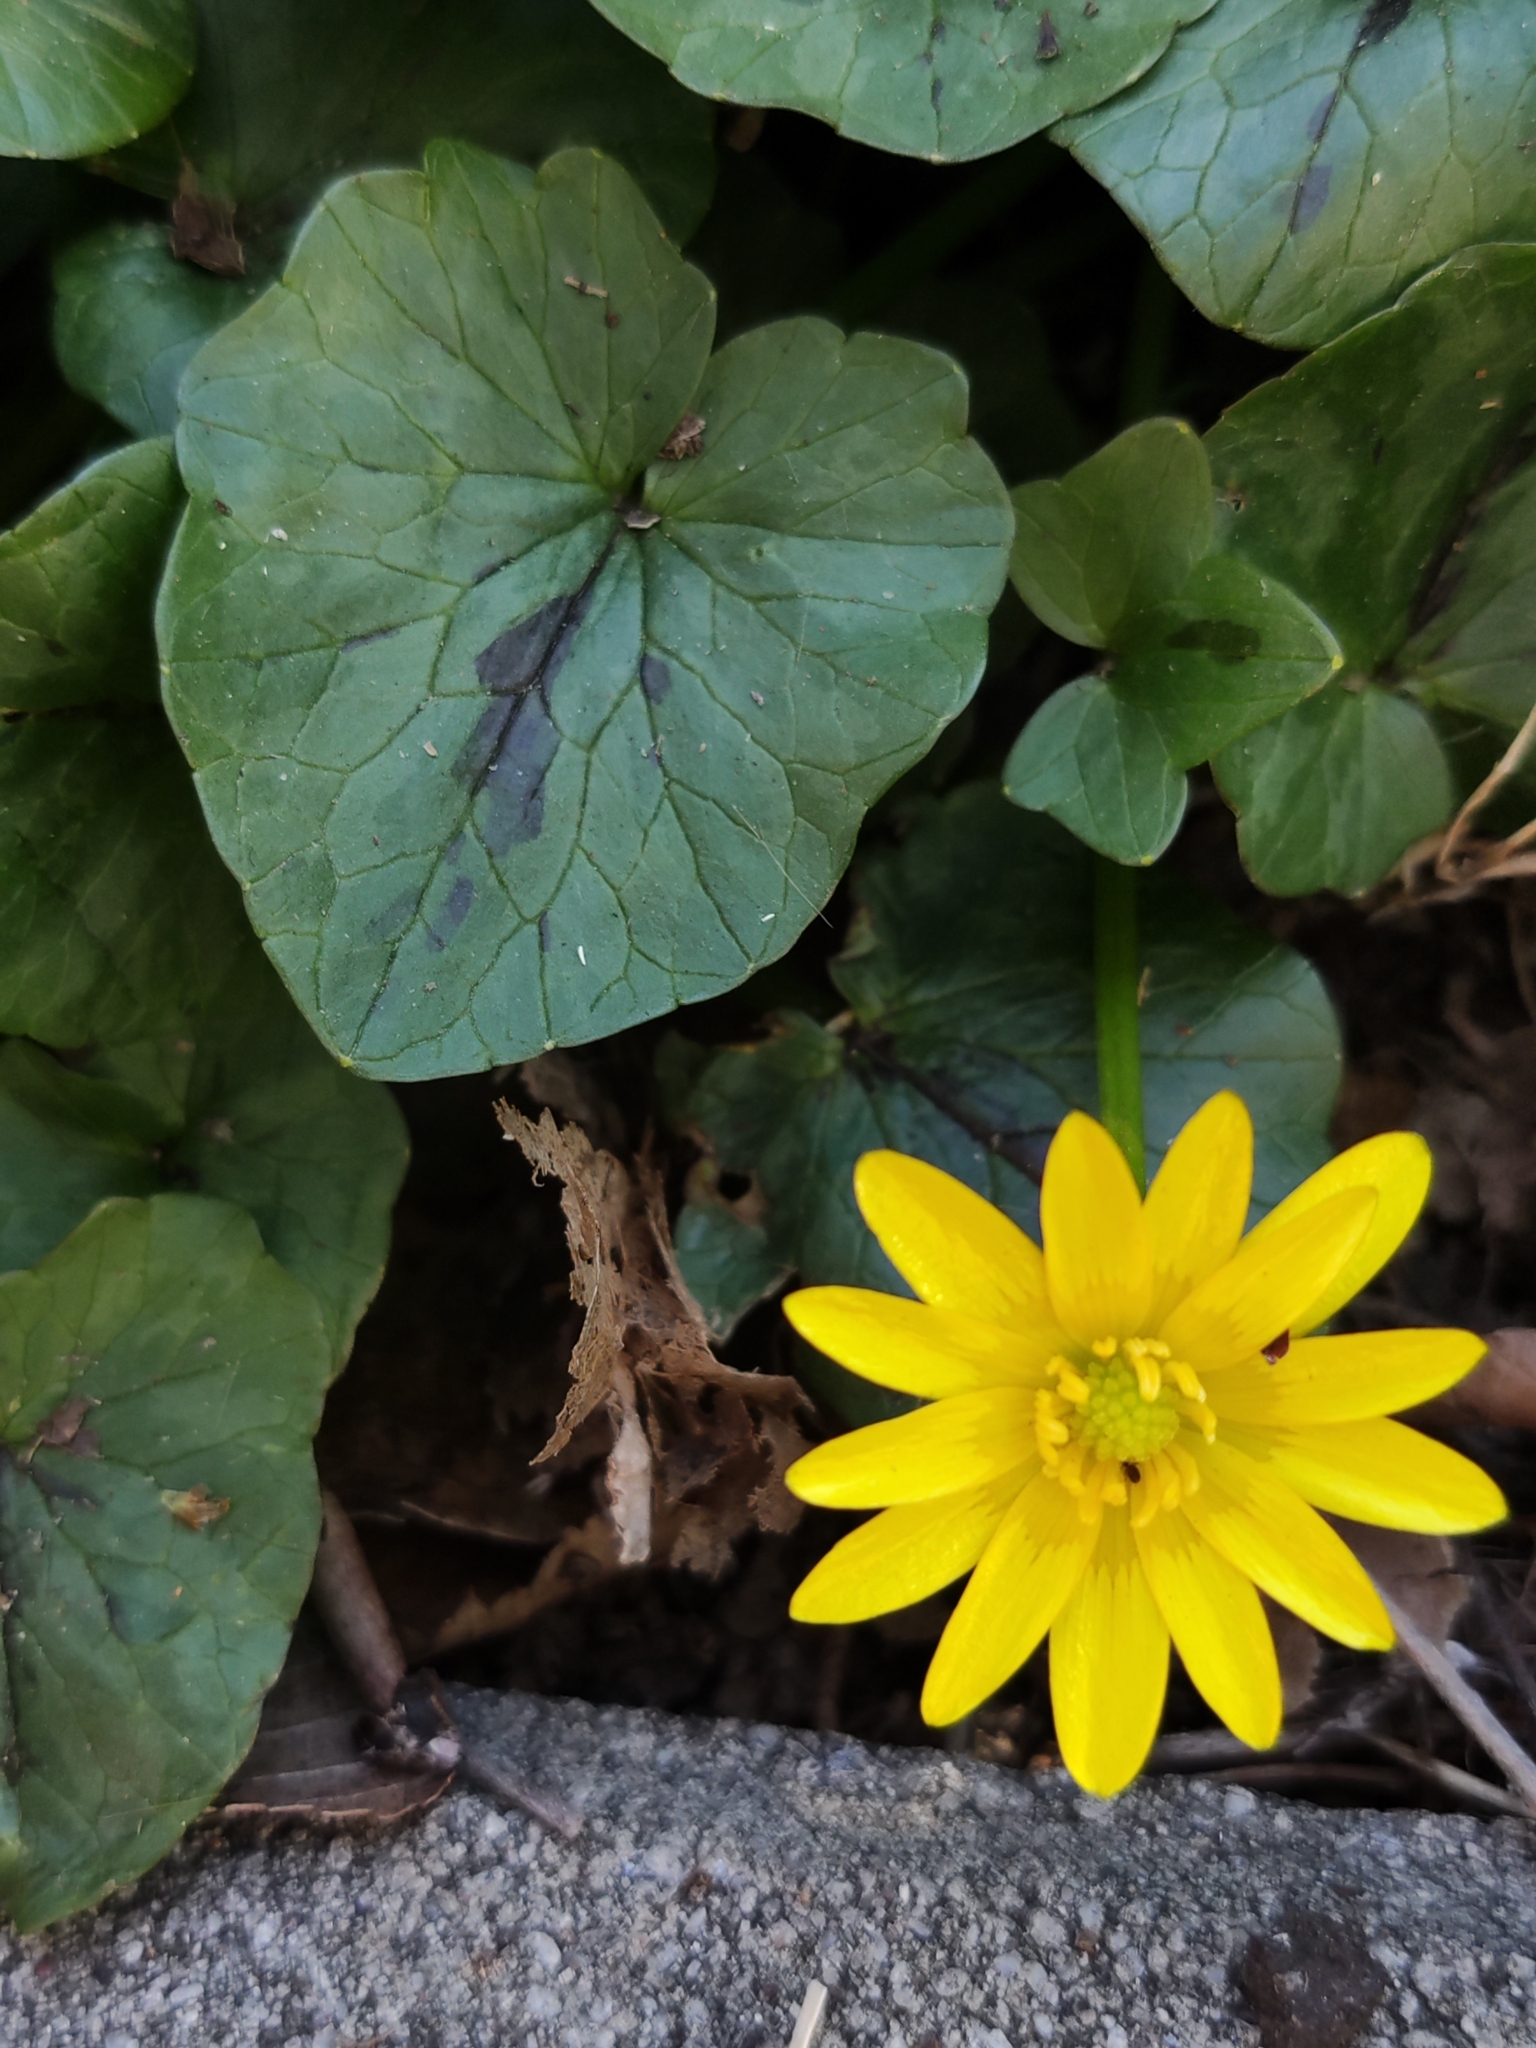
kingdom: Plantae
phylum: Tracheophyta
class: Magnoliopsida
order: Ranunculales
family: Ranunculaceae
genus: Ficaria
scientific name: Ficaria verna
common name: Lesser celandine
